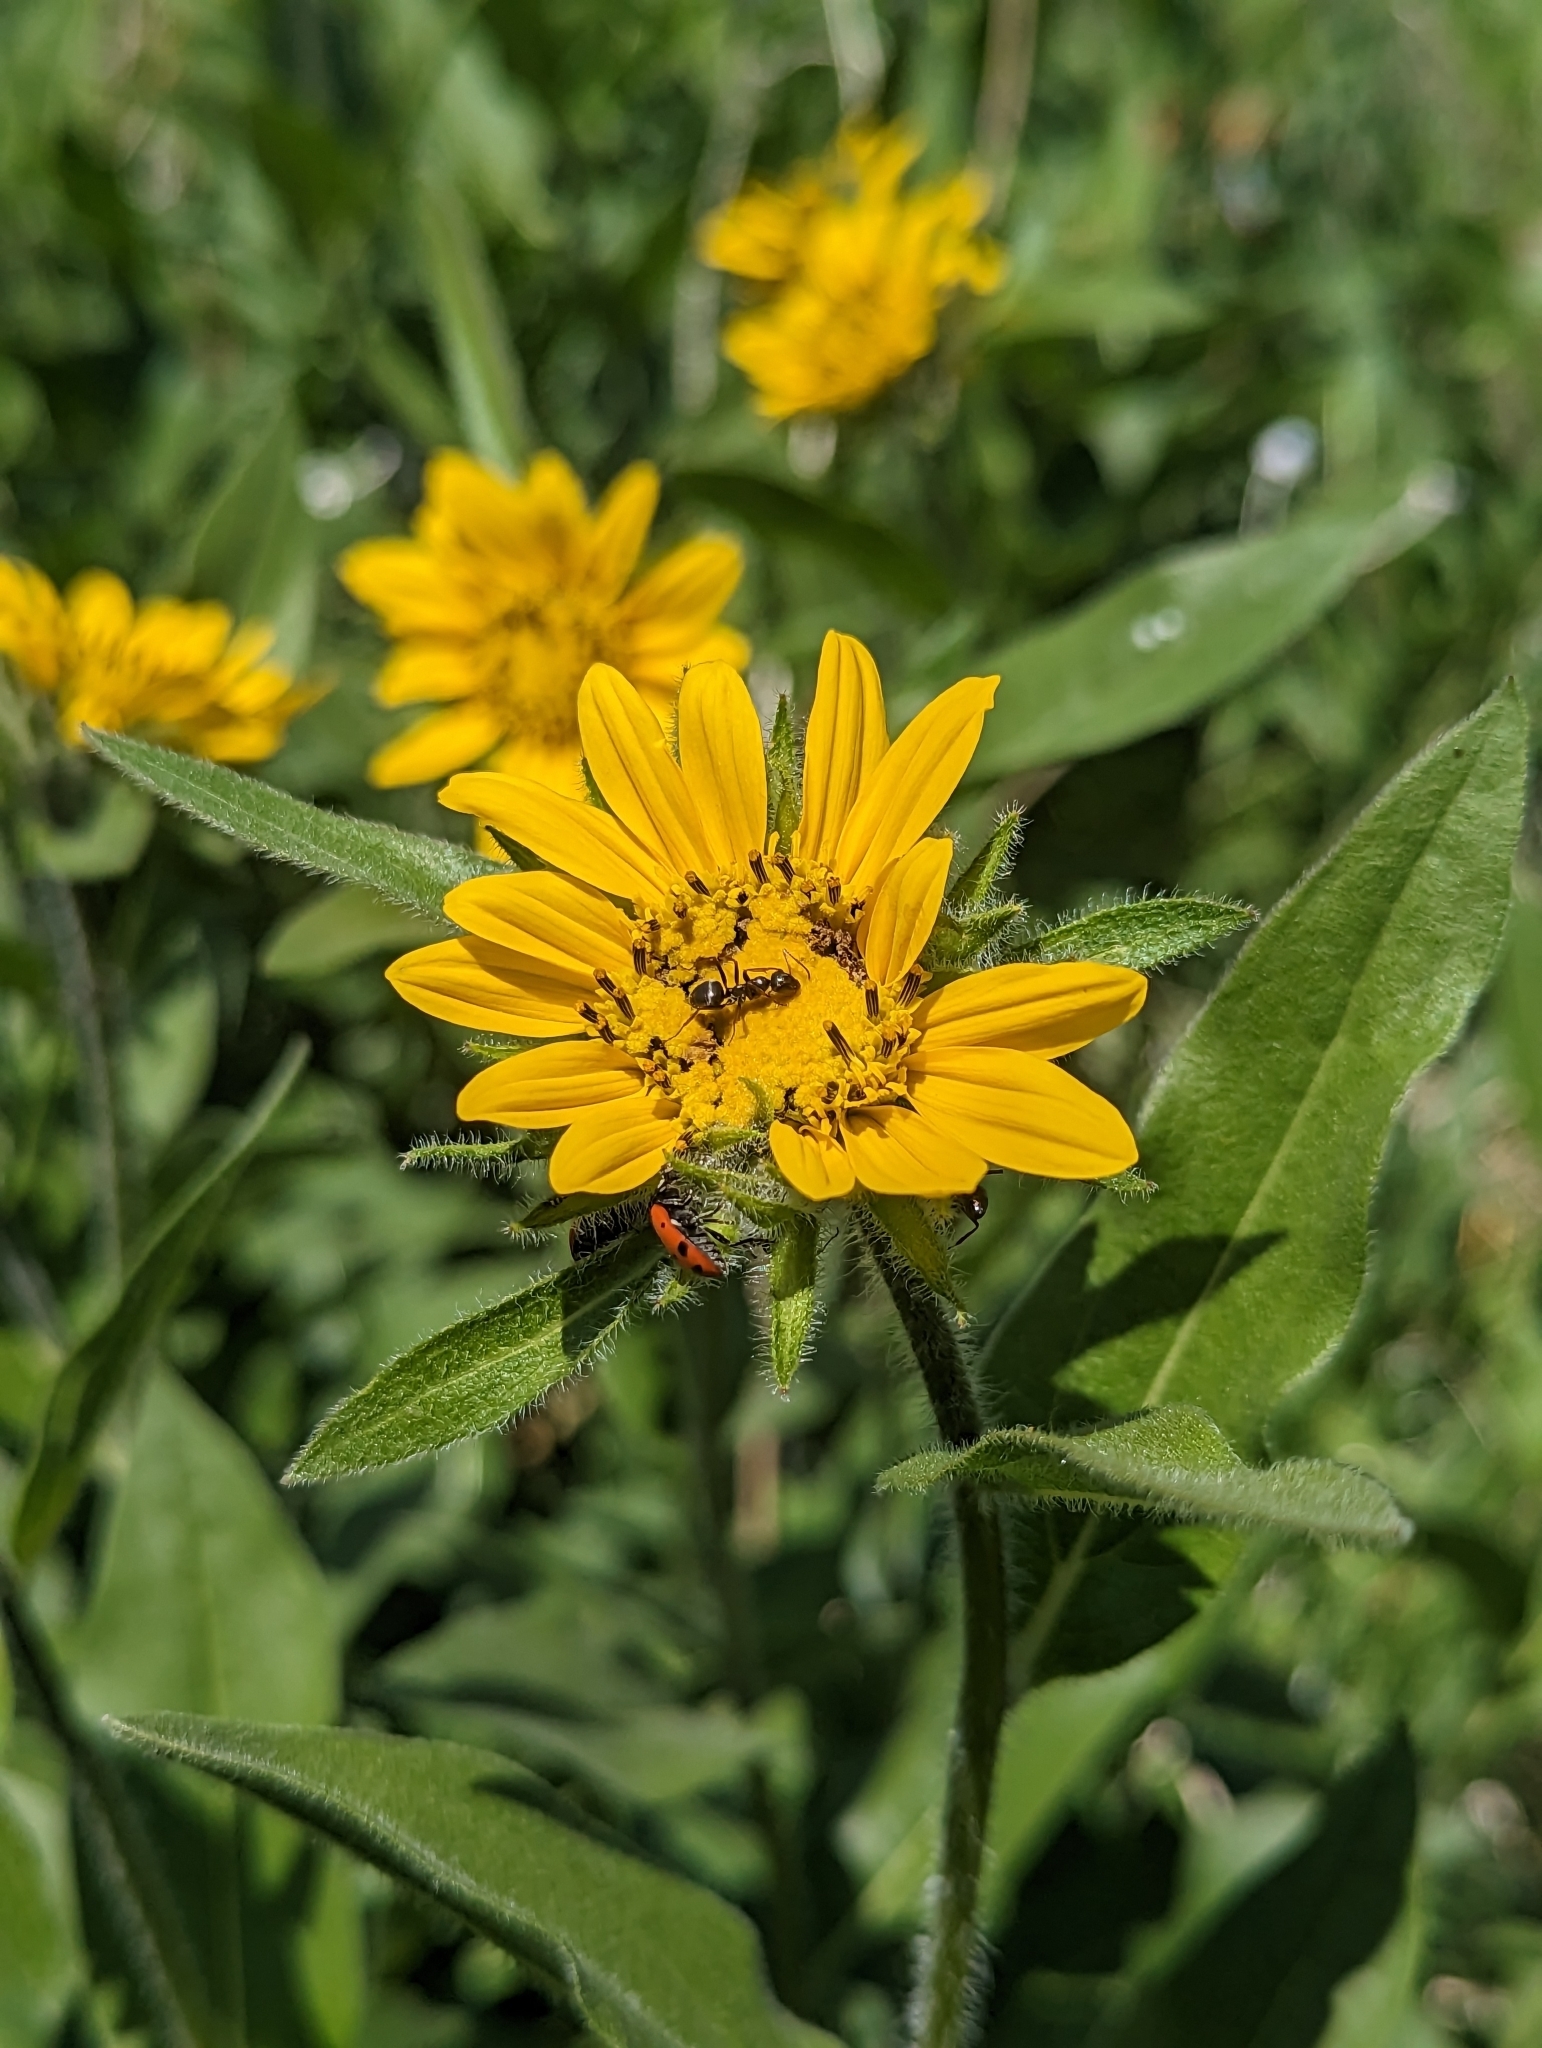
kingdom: Plantae
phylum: Tracheophyta
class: Magnoliopsida
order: Asterales
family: Asteraceae
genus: Helianthella
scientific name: Helianthella uniflora
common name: Rocky mountain dwarf sunflower
